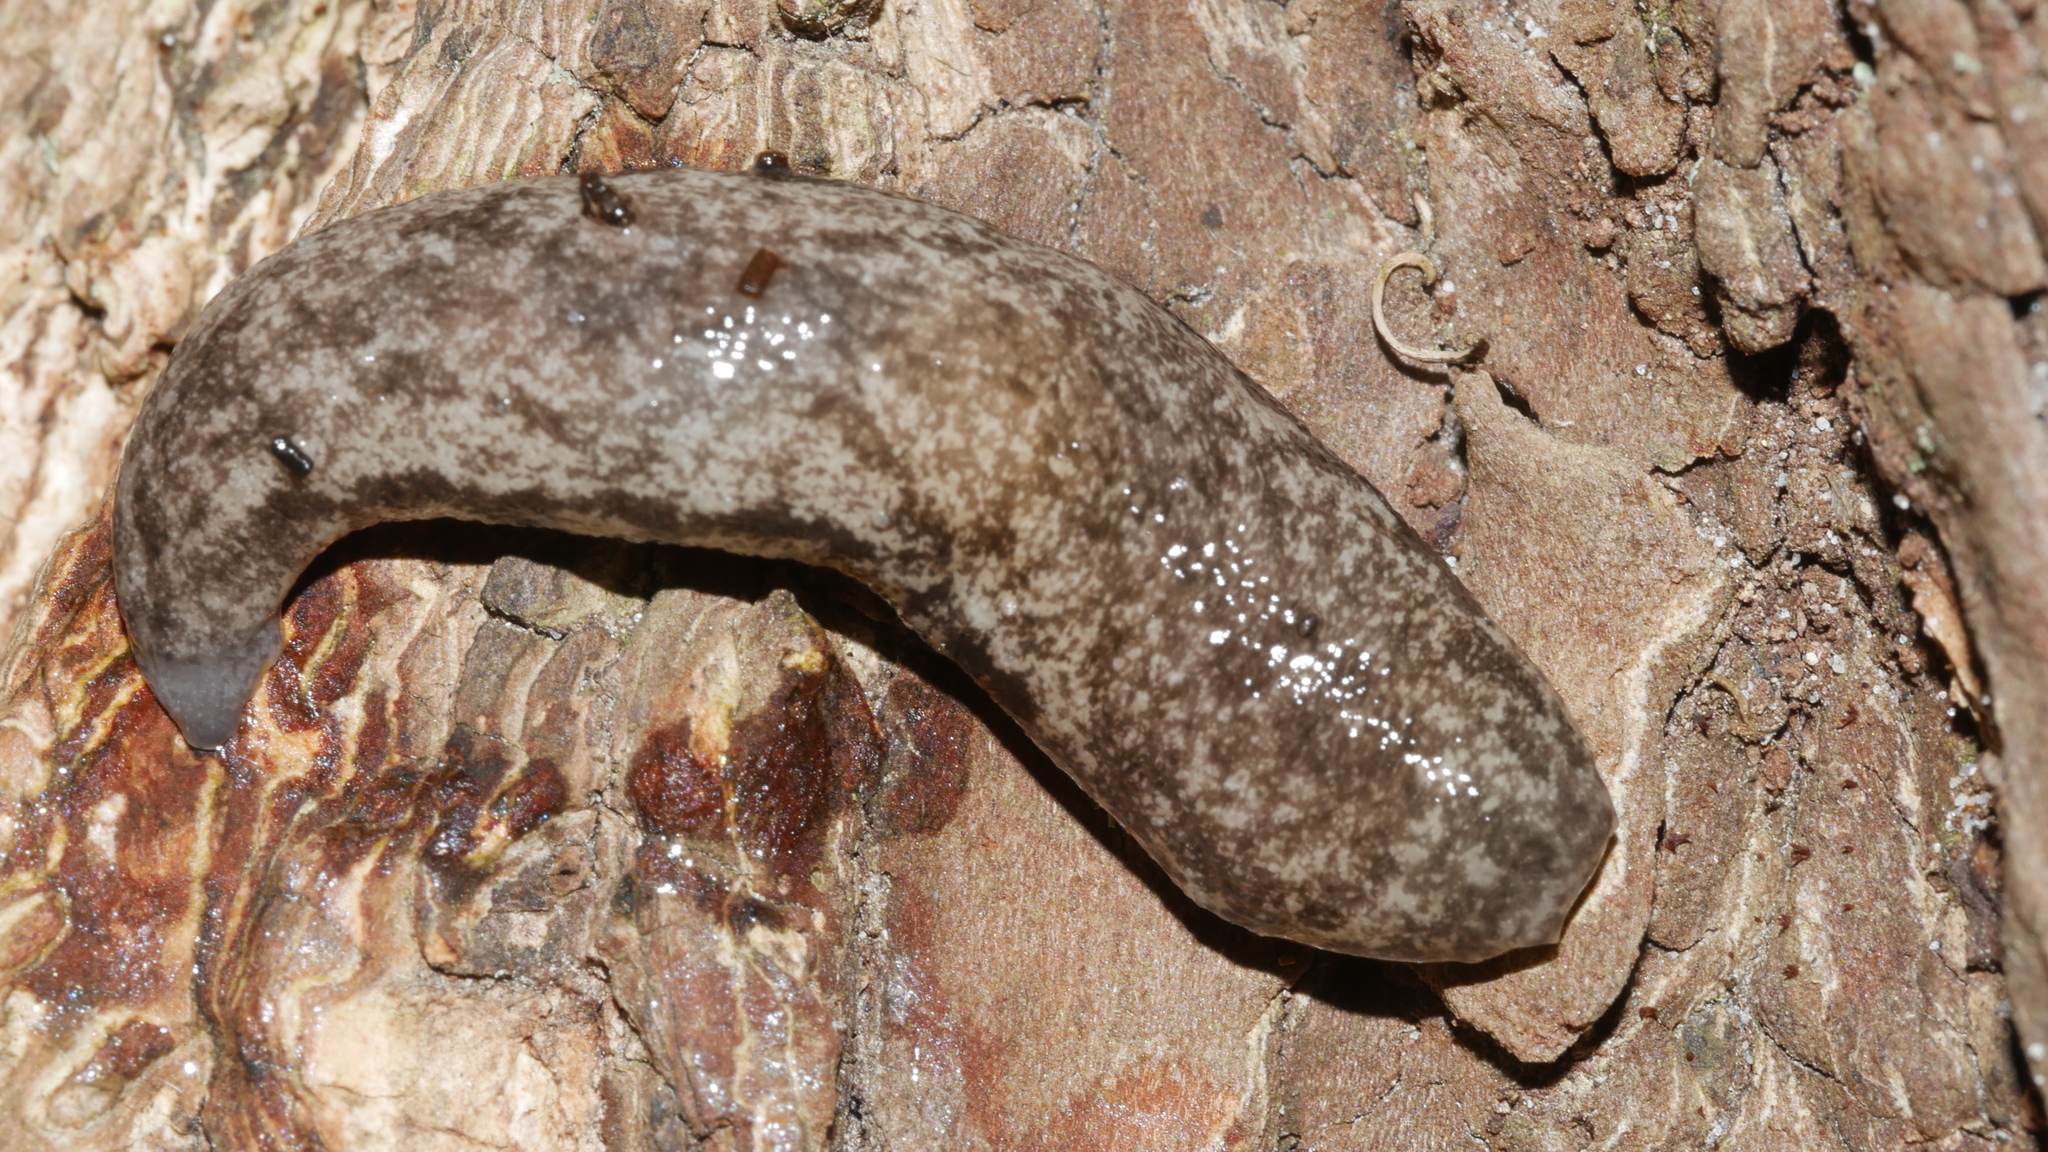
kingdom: Animalia
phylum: Mollusca
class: Gastropoda
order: Stylommatophora
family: Philomycidae
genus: Megapallifera
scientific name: Megapallifera mutabilis
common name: Changeable mantleslug
